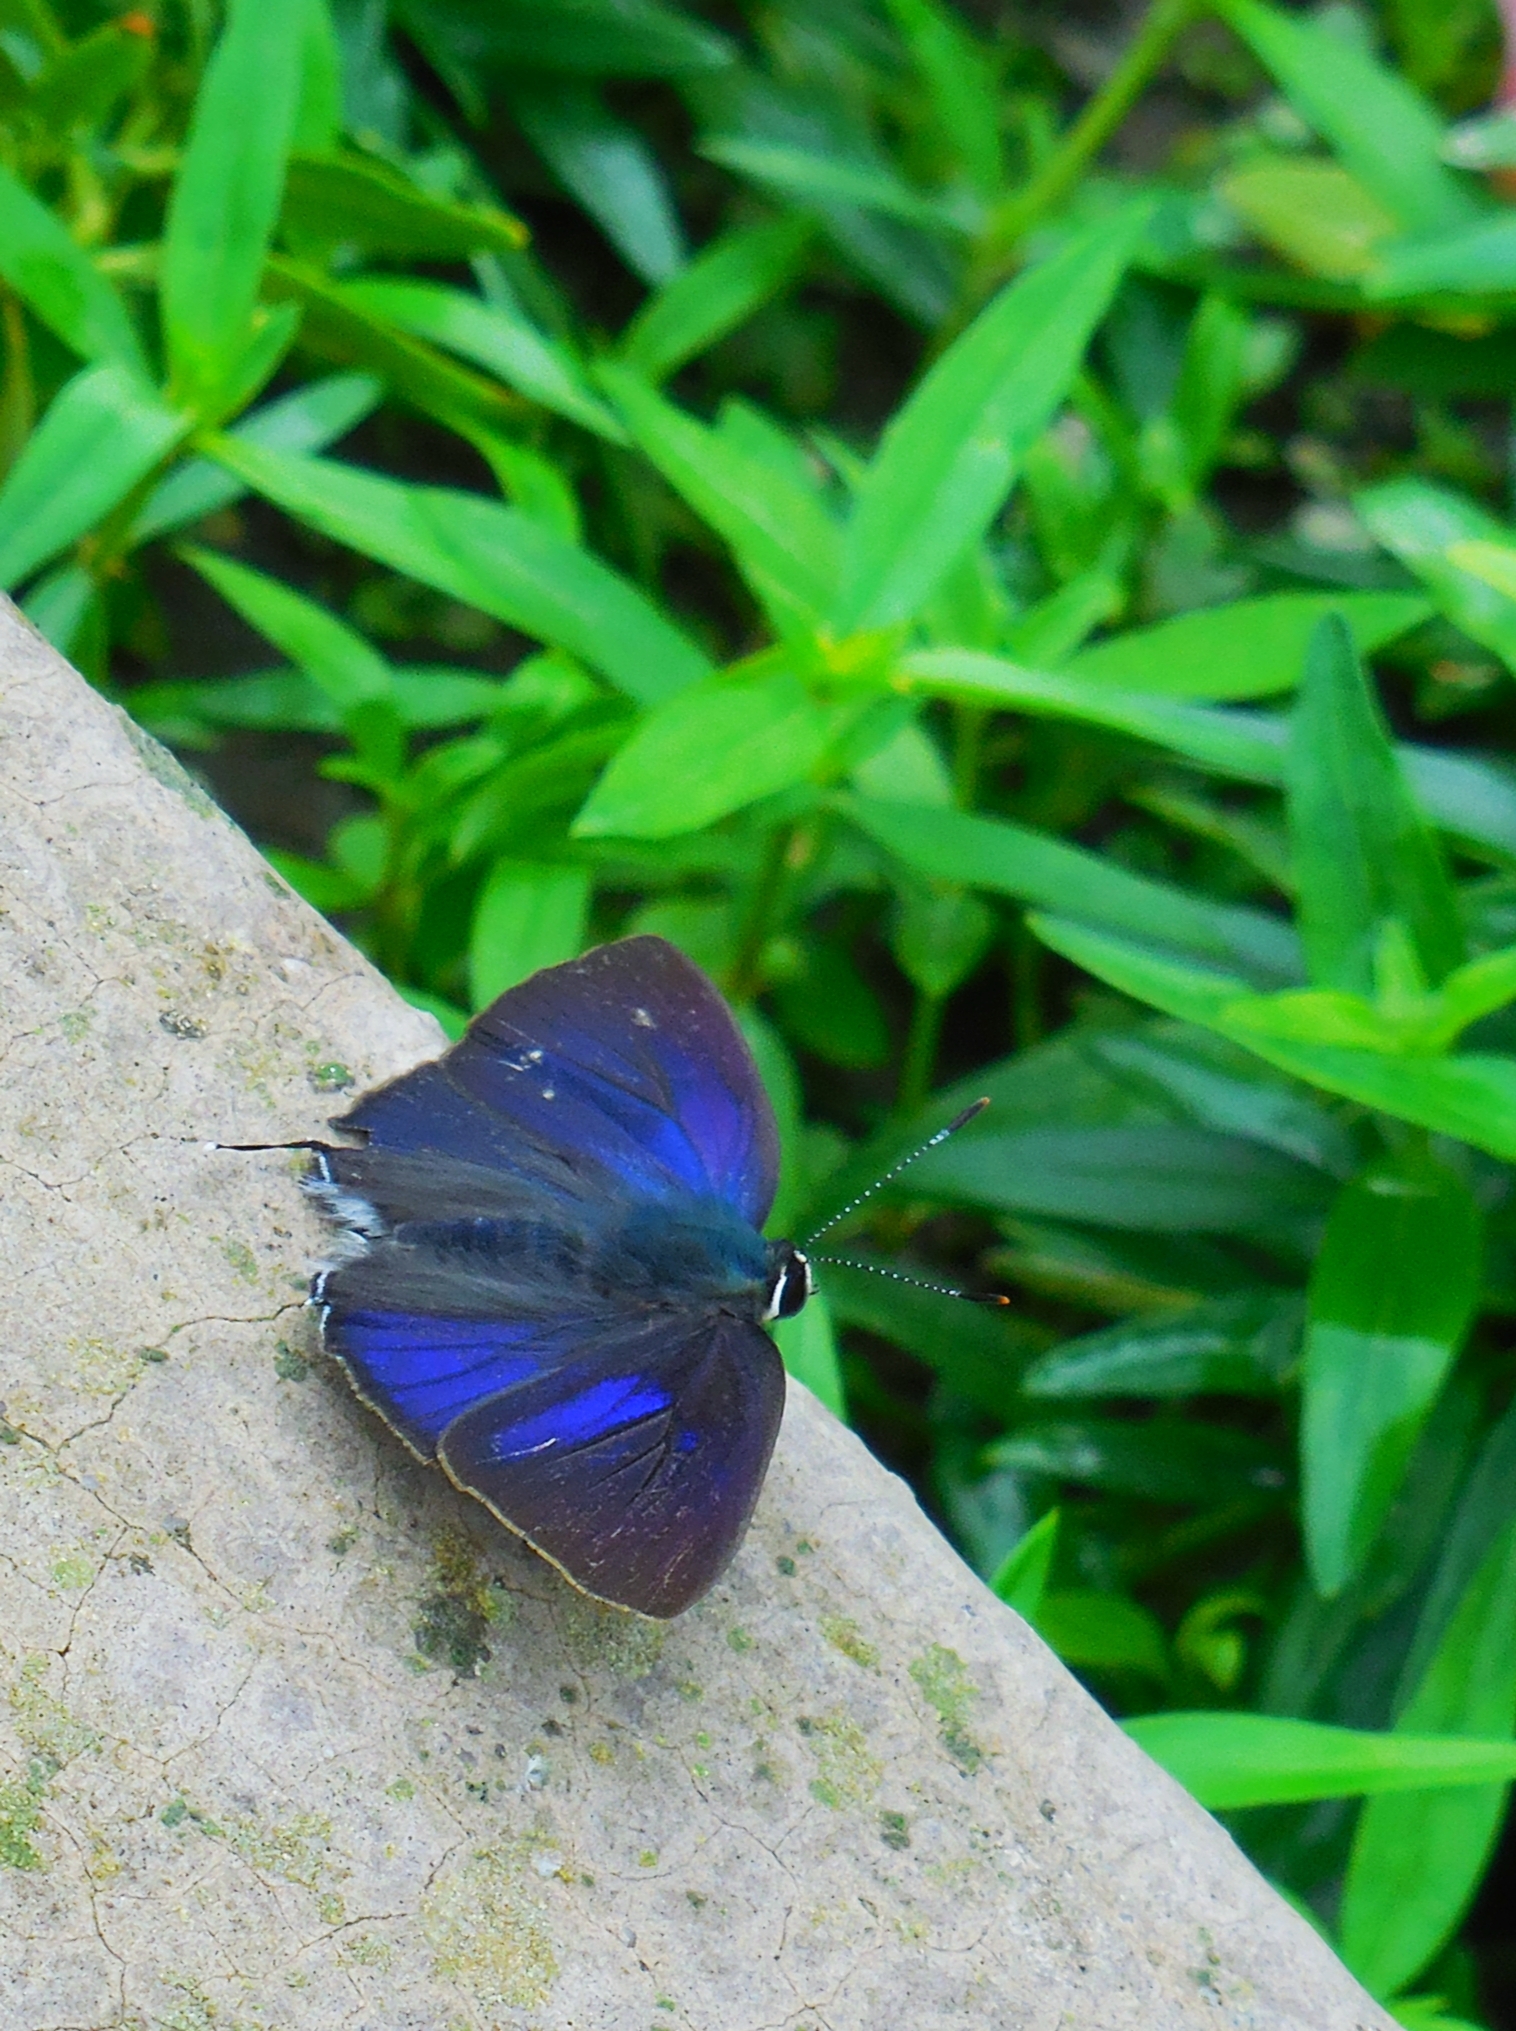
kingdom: Animalia
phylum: Arthropoda
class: Insecta
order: Lepidoptera
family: Lycaenidae
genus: Rapala
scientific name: Rapala manea
